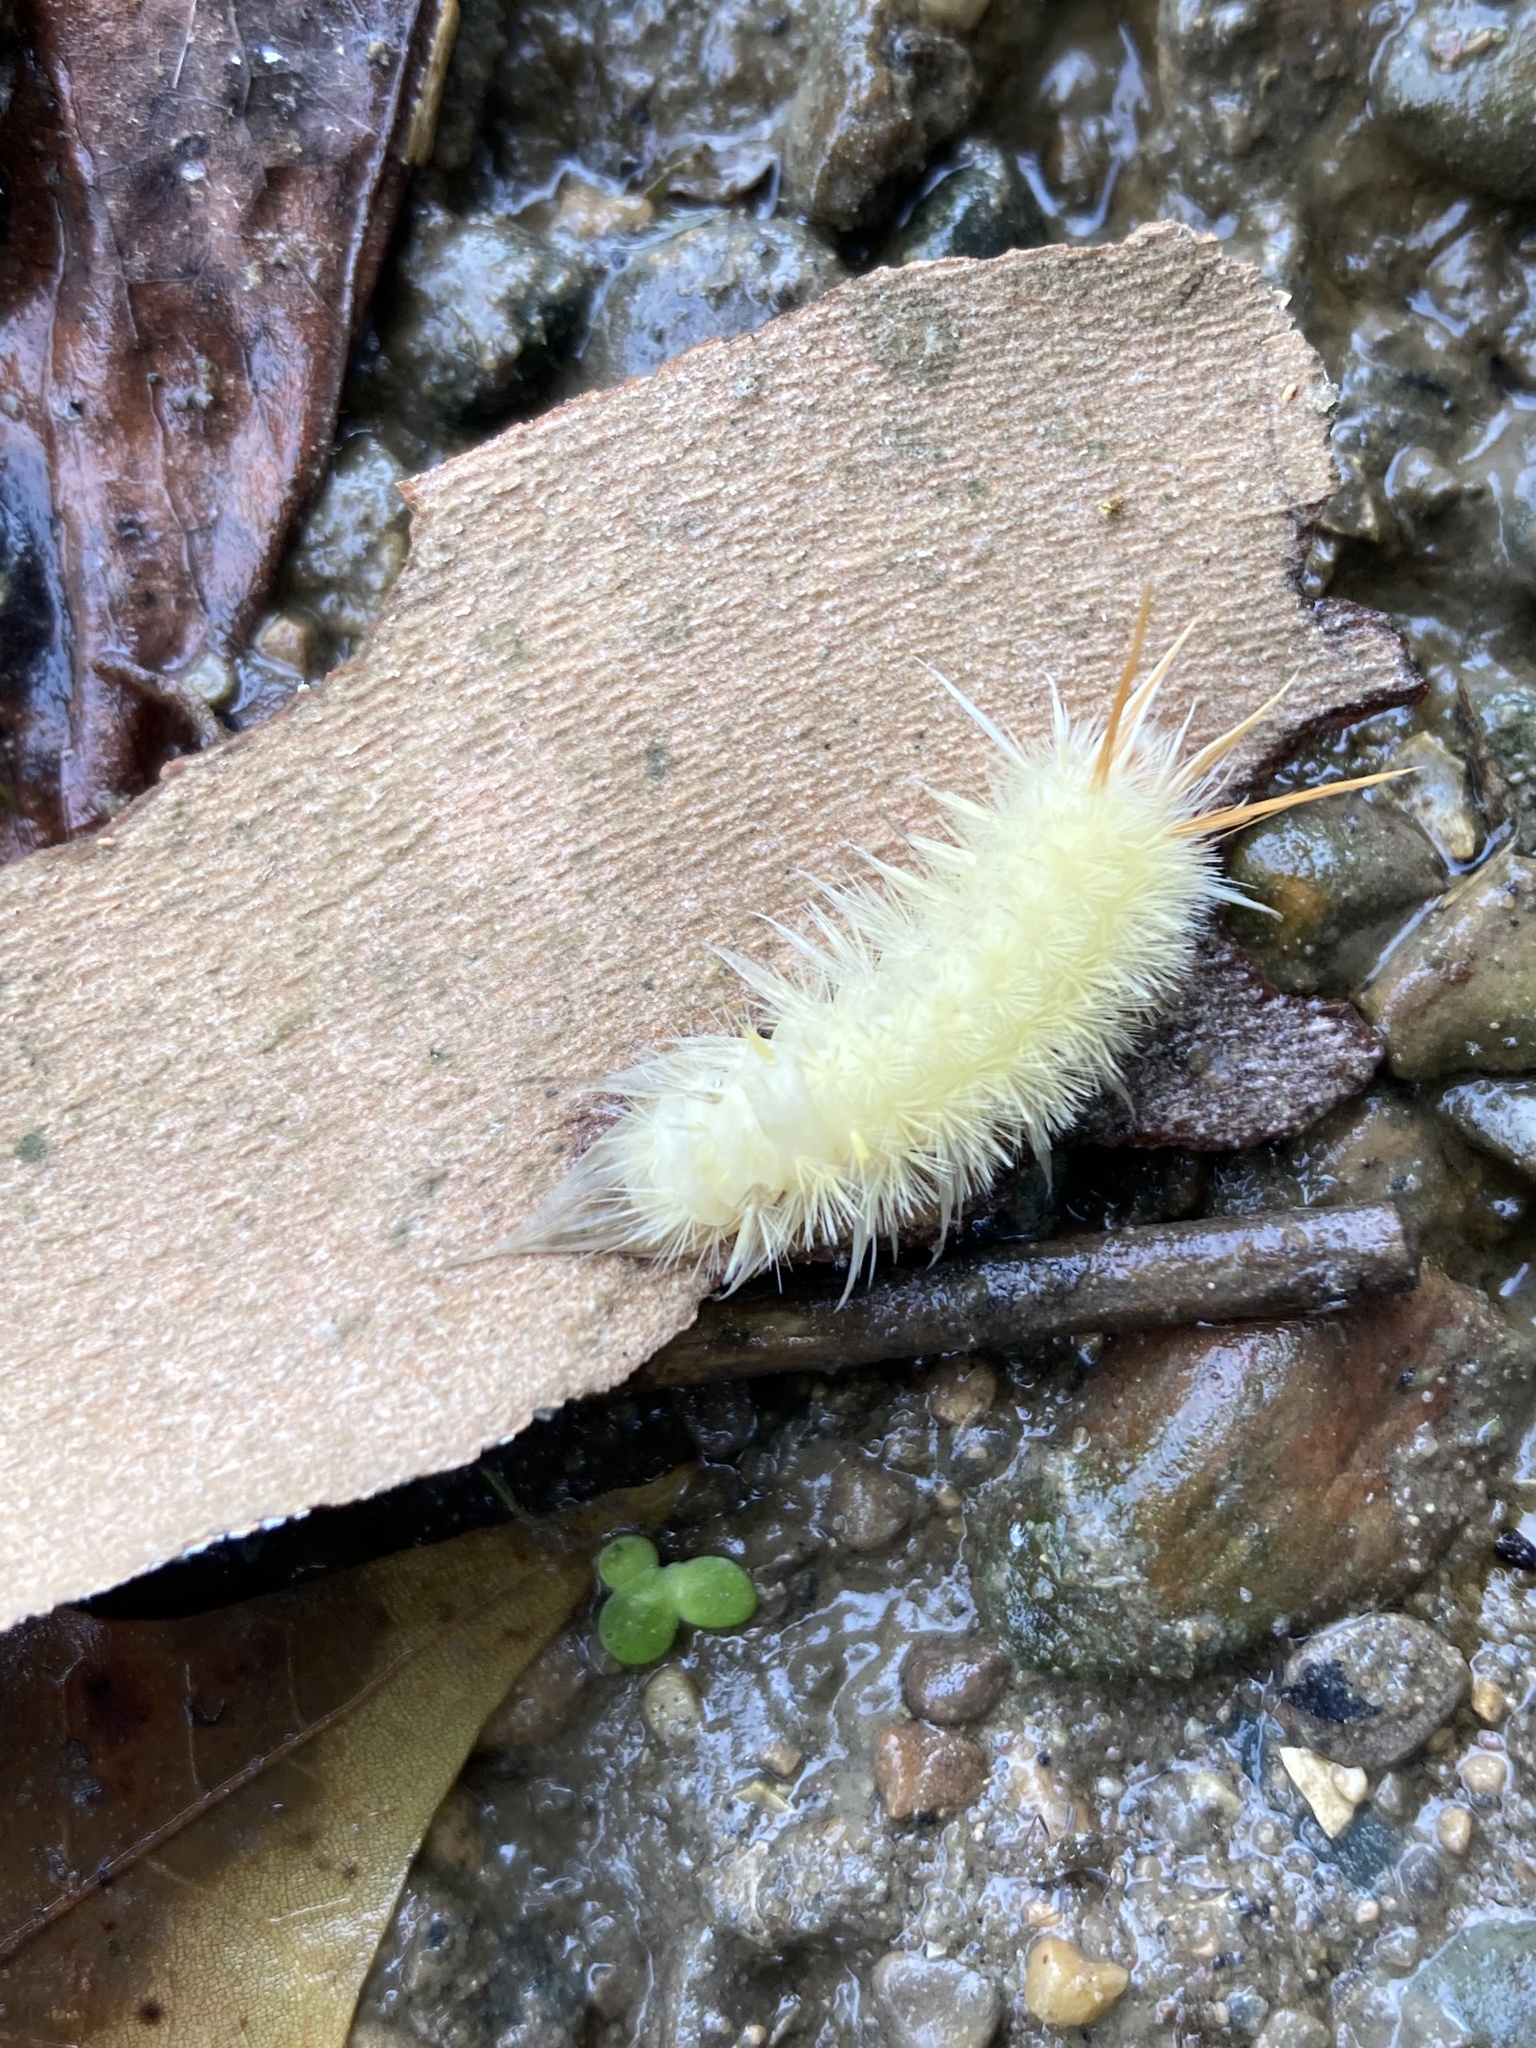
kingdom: Animalia
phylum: Arthropoda
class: Insecta
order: Lepidoptera
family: Erebidae
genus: Halysidota
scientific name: Halysidota harrisii
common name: Sycamore tussock moth
